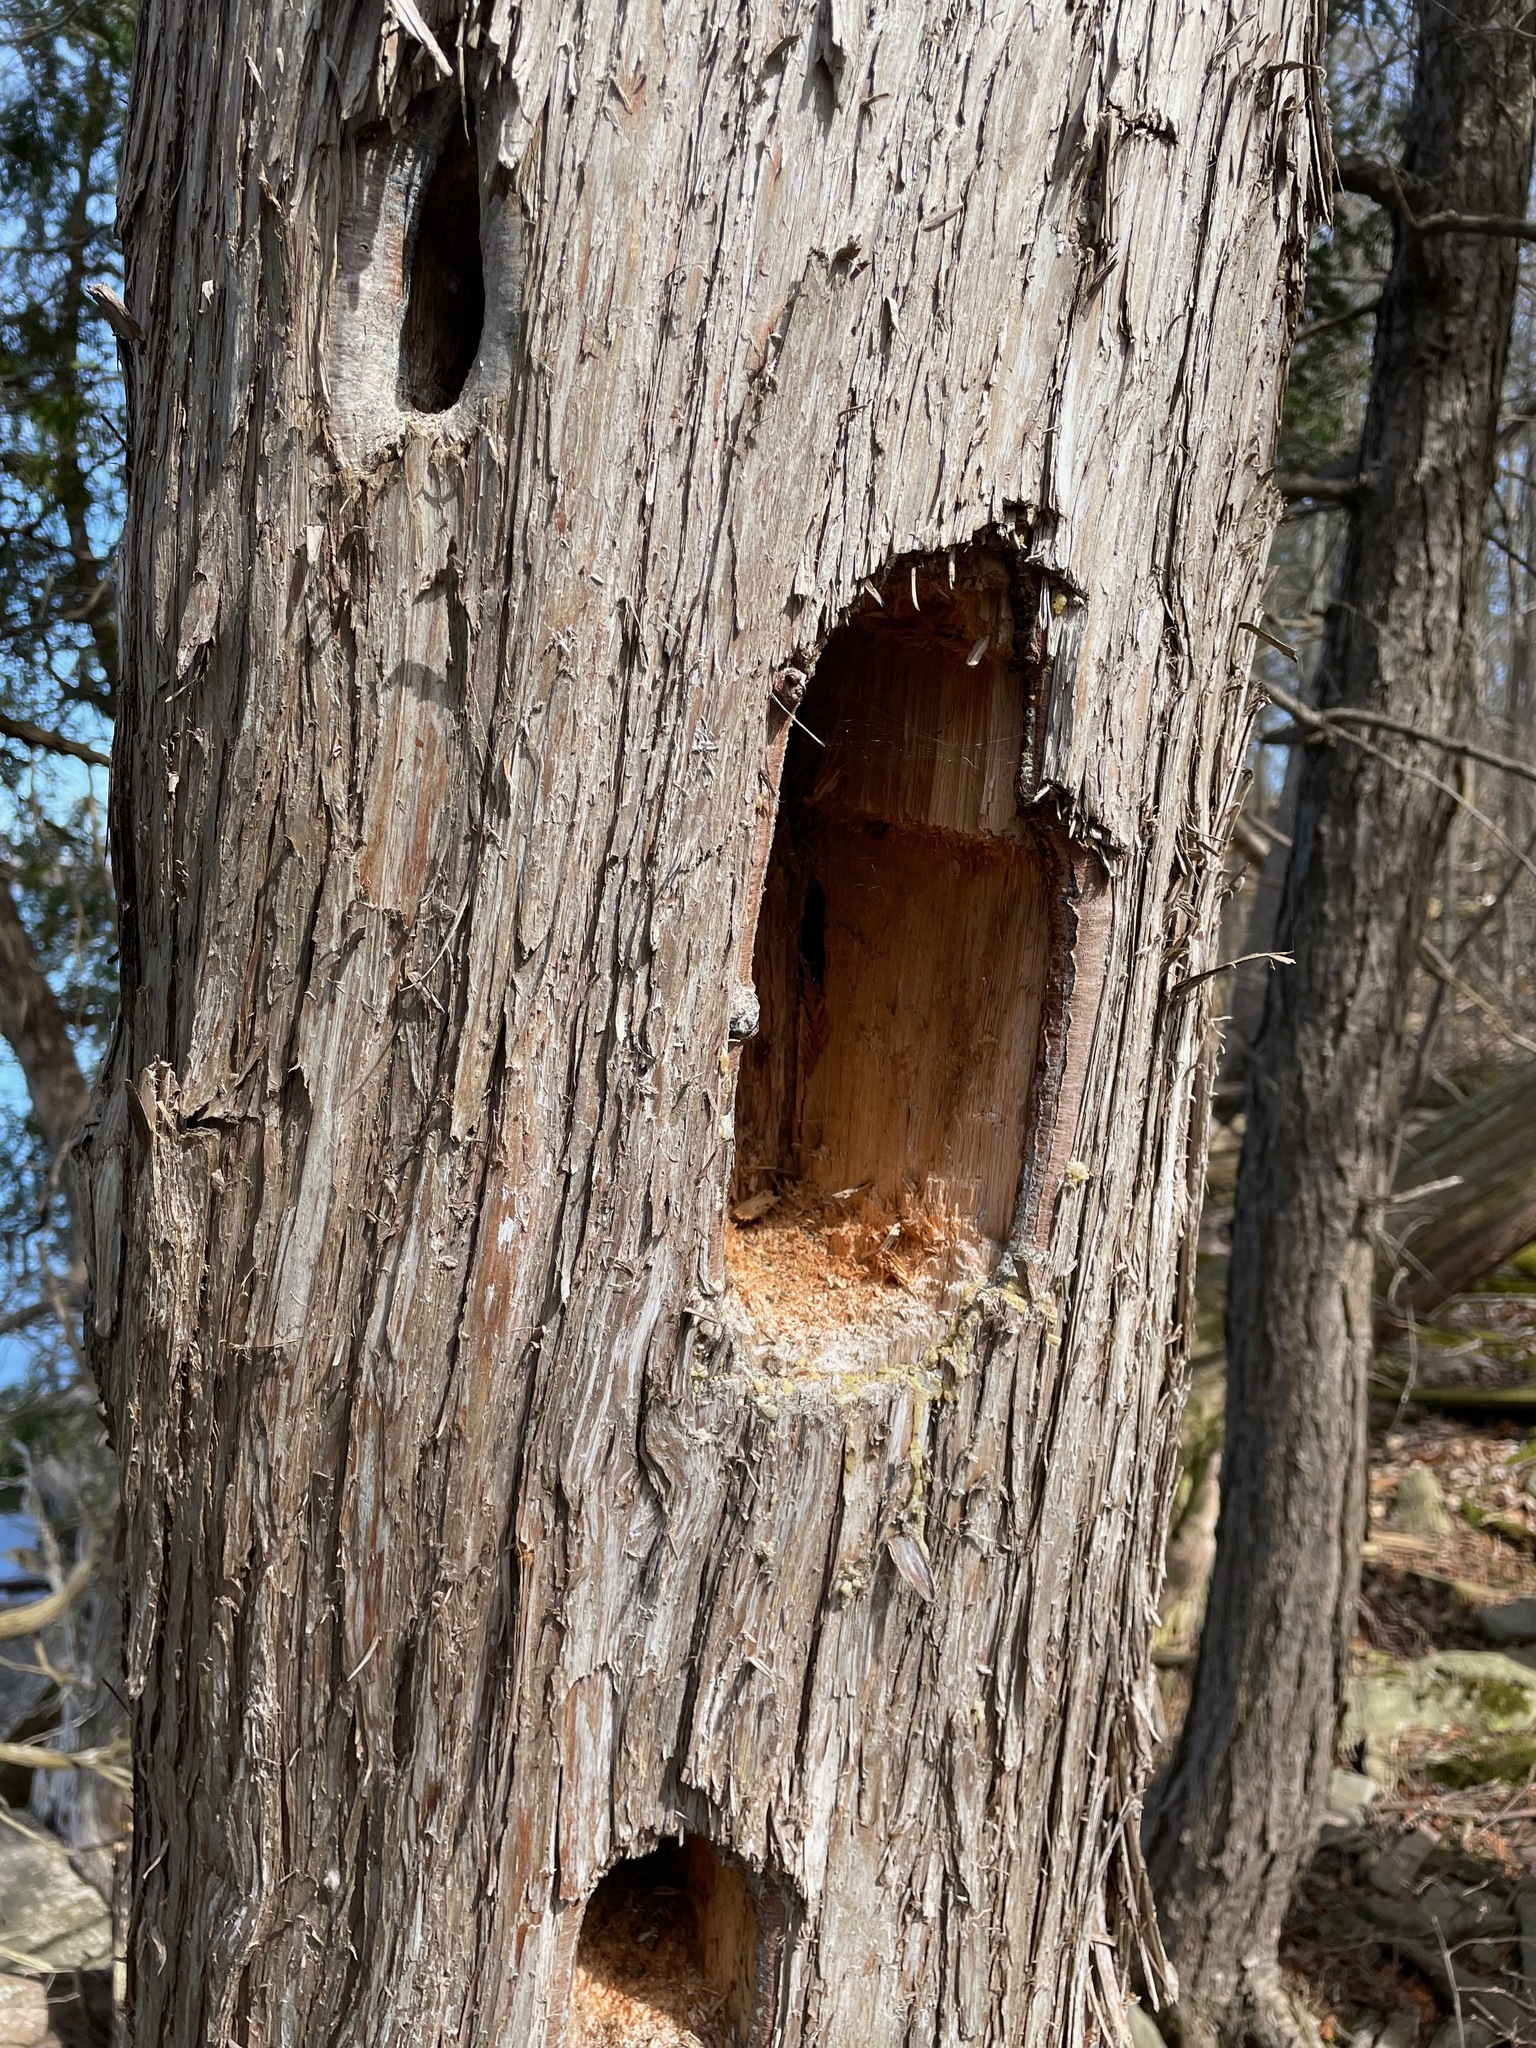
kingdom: Animalia
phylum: Chordata
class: Aves
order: Piciformes
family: Picidae
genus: Dryocopus
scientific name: Dryocopus pileatus
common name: Pileated woodpecker
